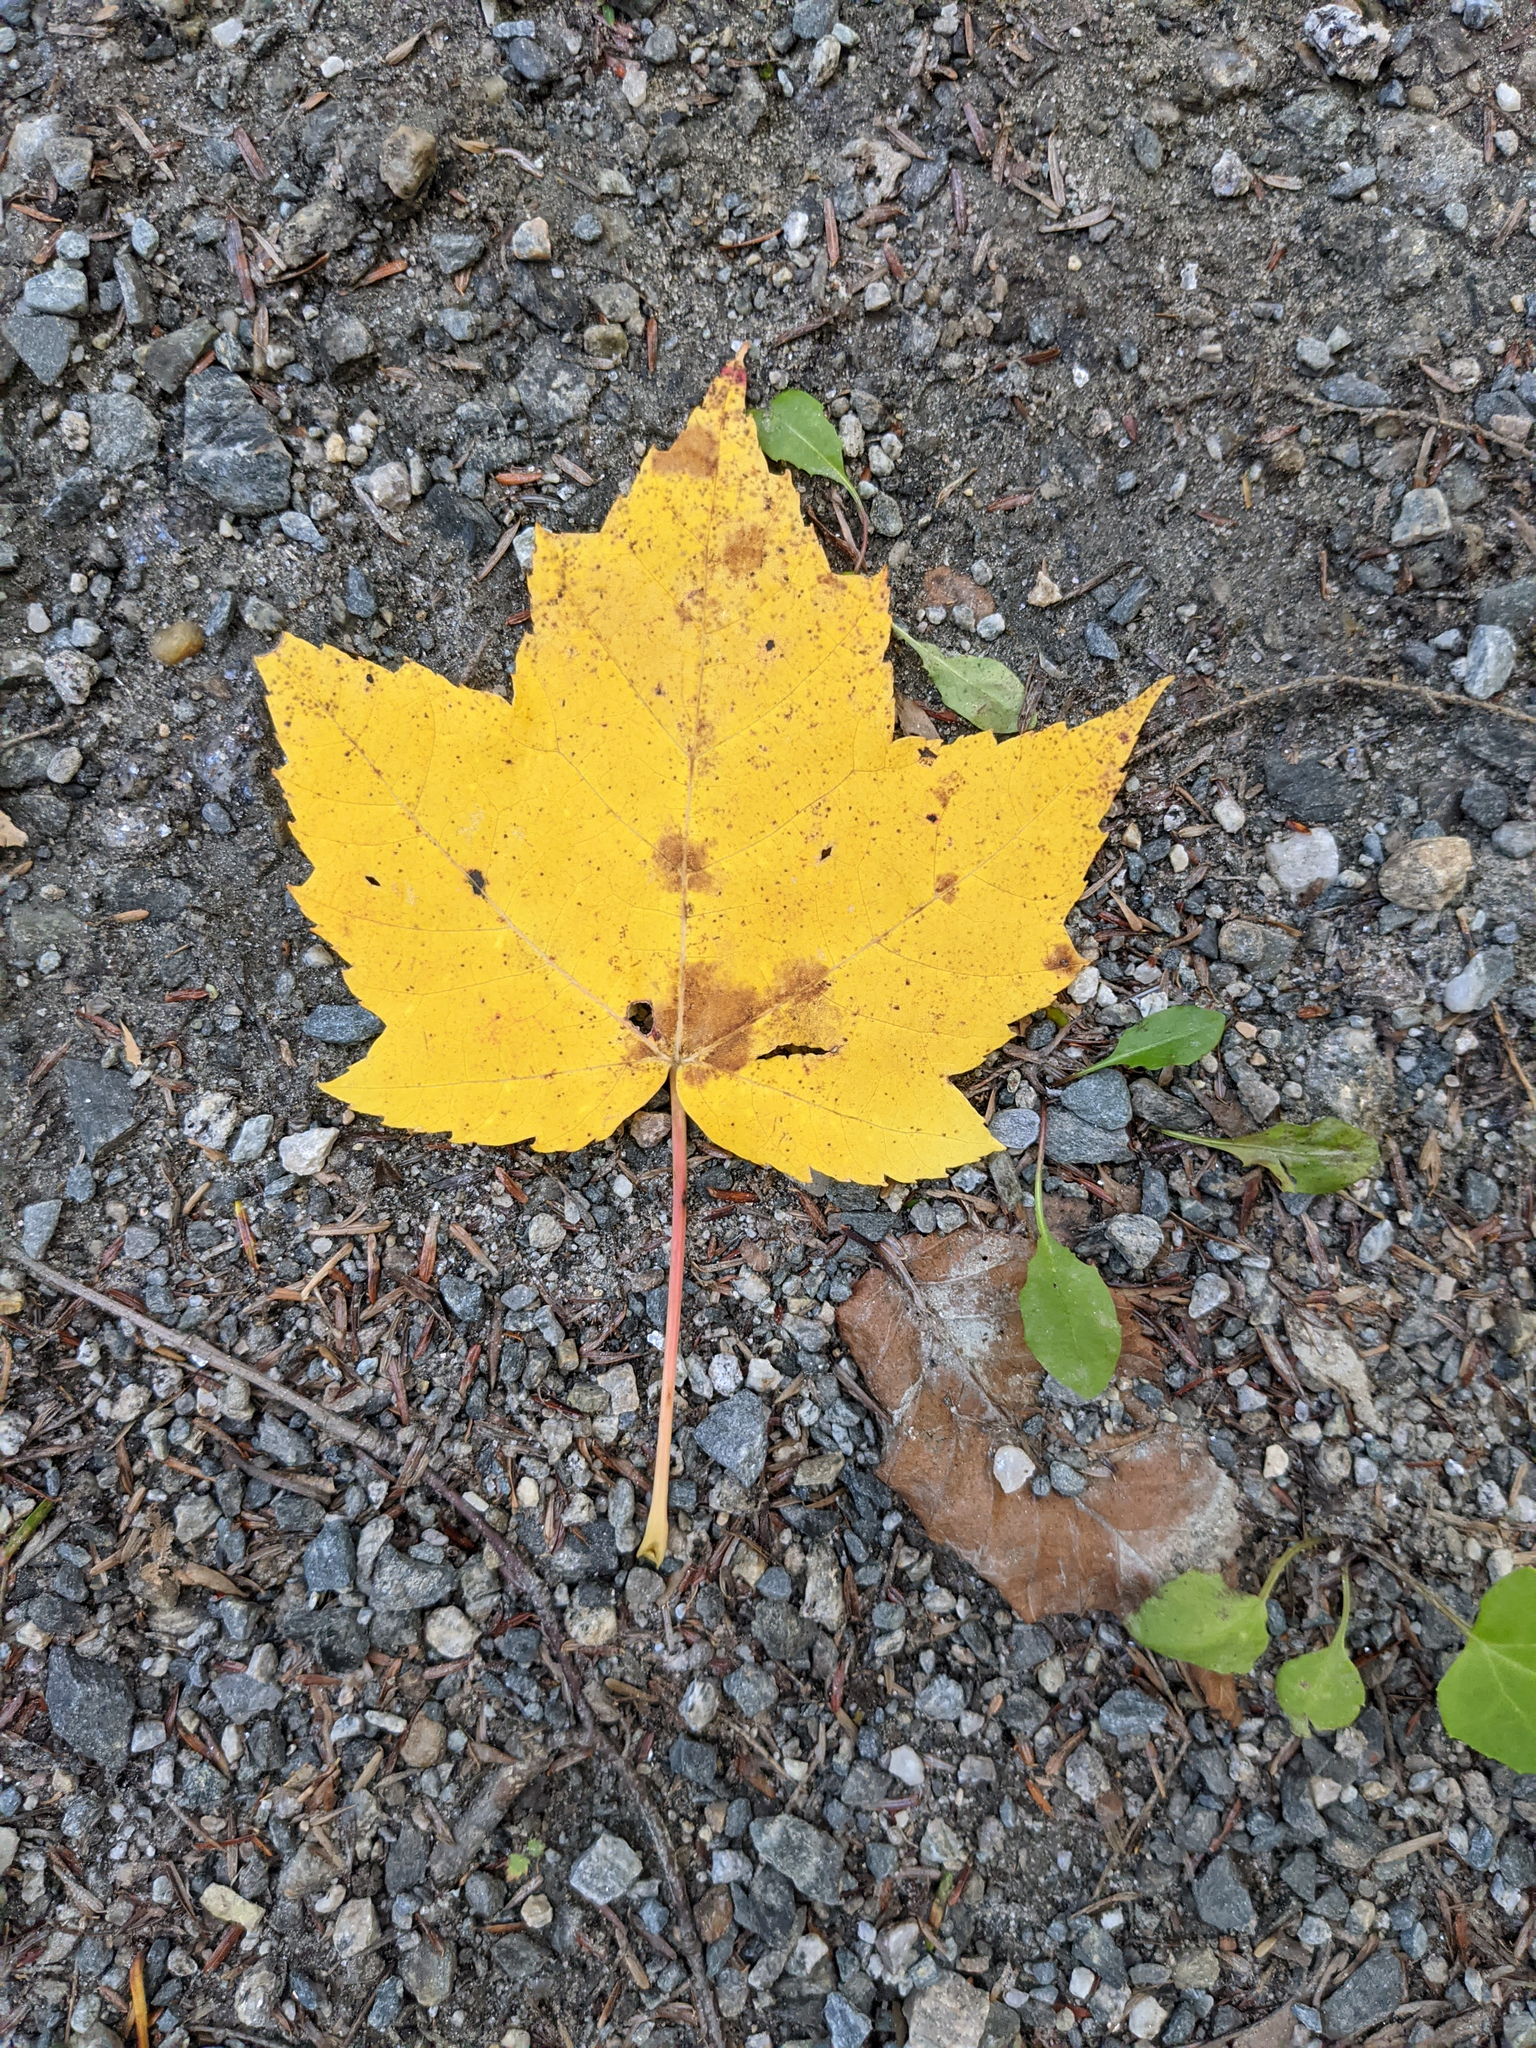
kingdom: Plantae
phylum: Tracheophyta
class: Magnoliopsida
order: Sapindales
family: Sapindaceae
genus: Acer
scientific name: Acer rubrum
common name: Red maple
